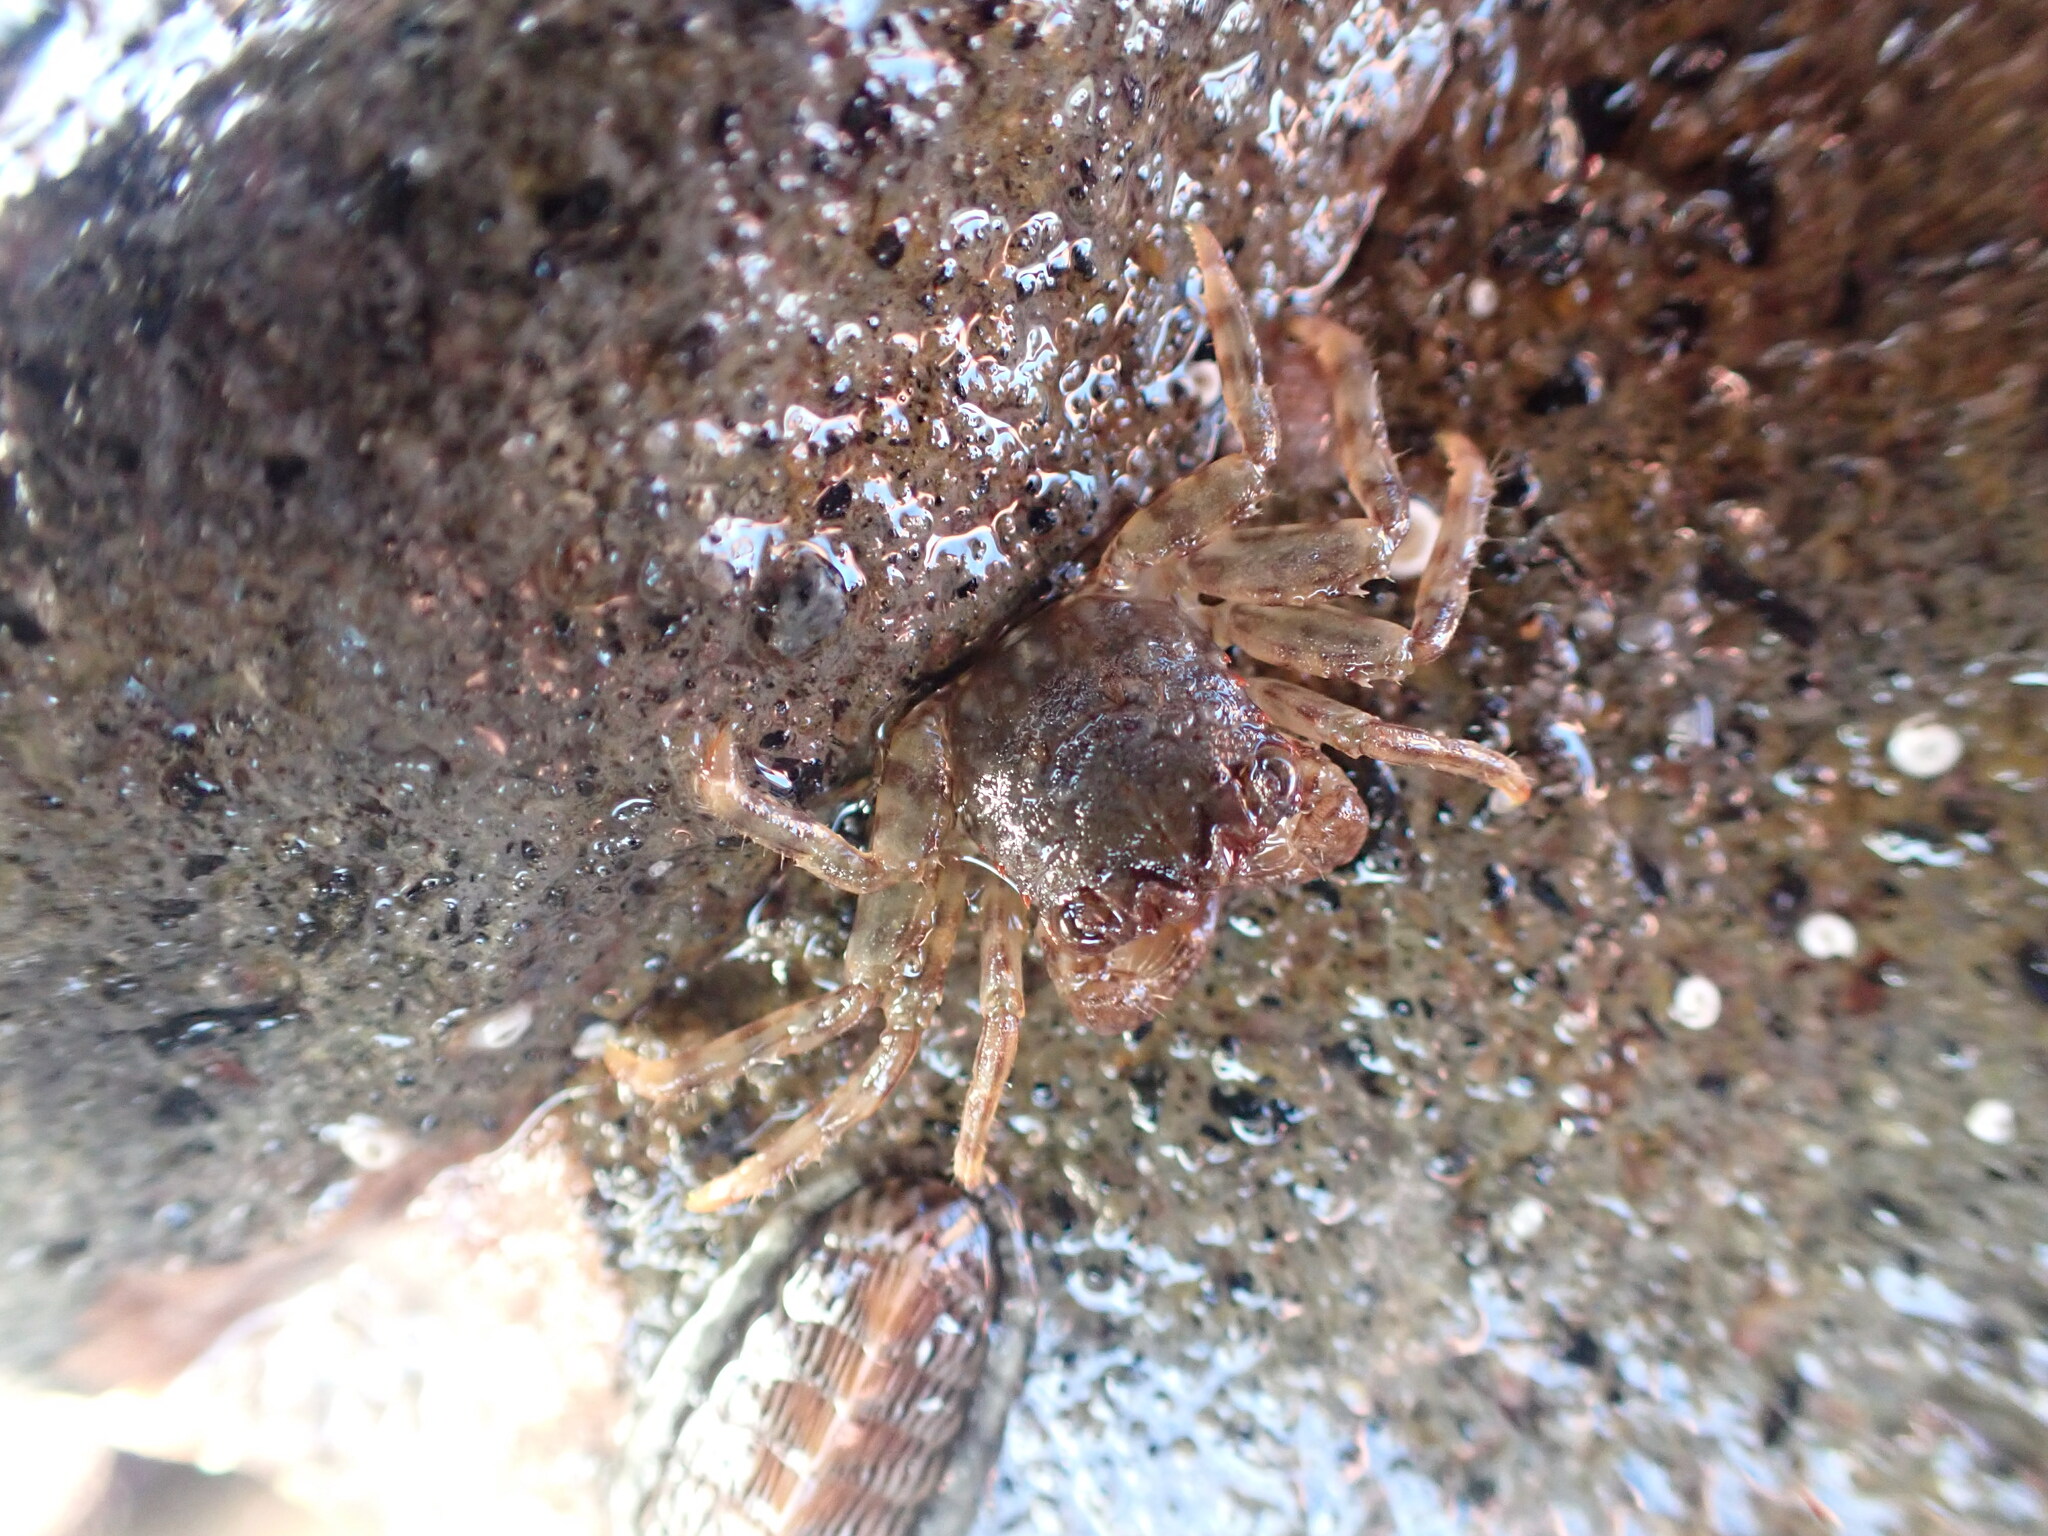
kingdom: Animalia
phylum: Arthropoda
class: Malacostraca
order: Decapoda
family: Plagusiidae
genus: Guinusia
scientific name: Guinusia chabrus
